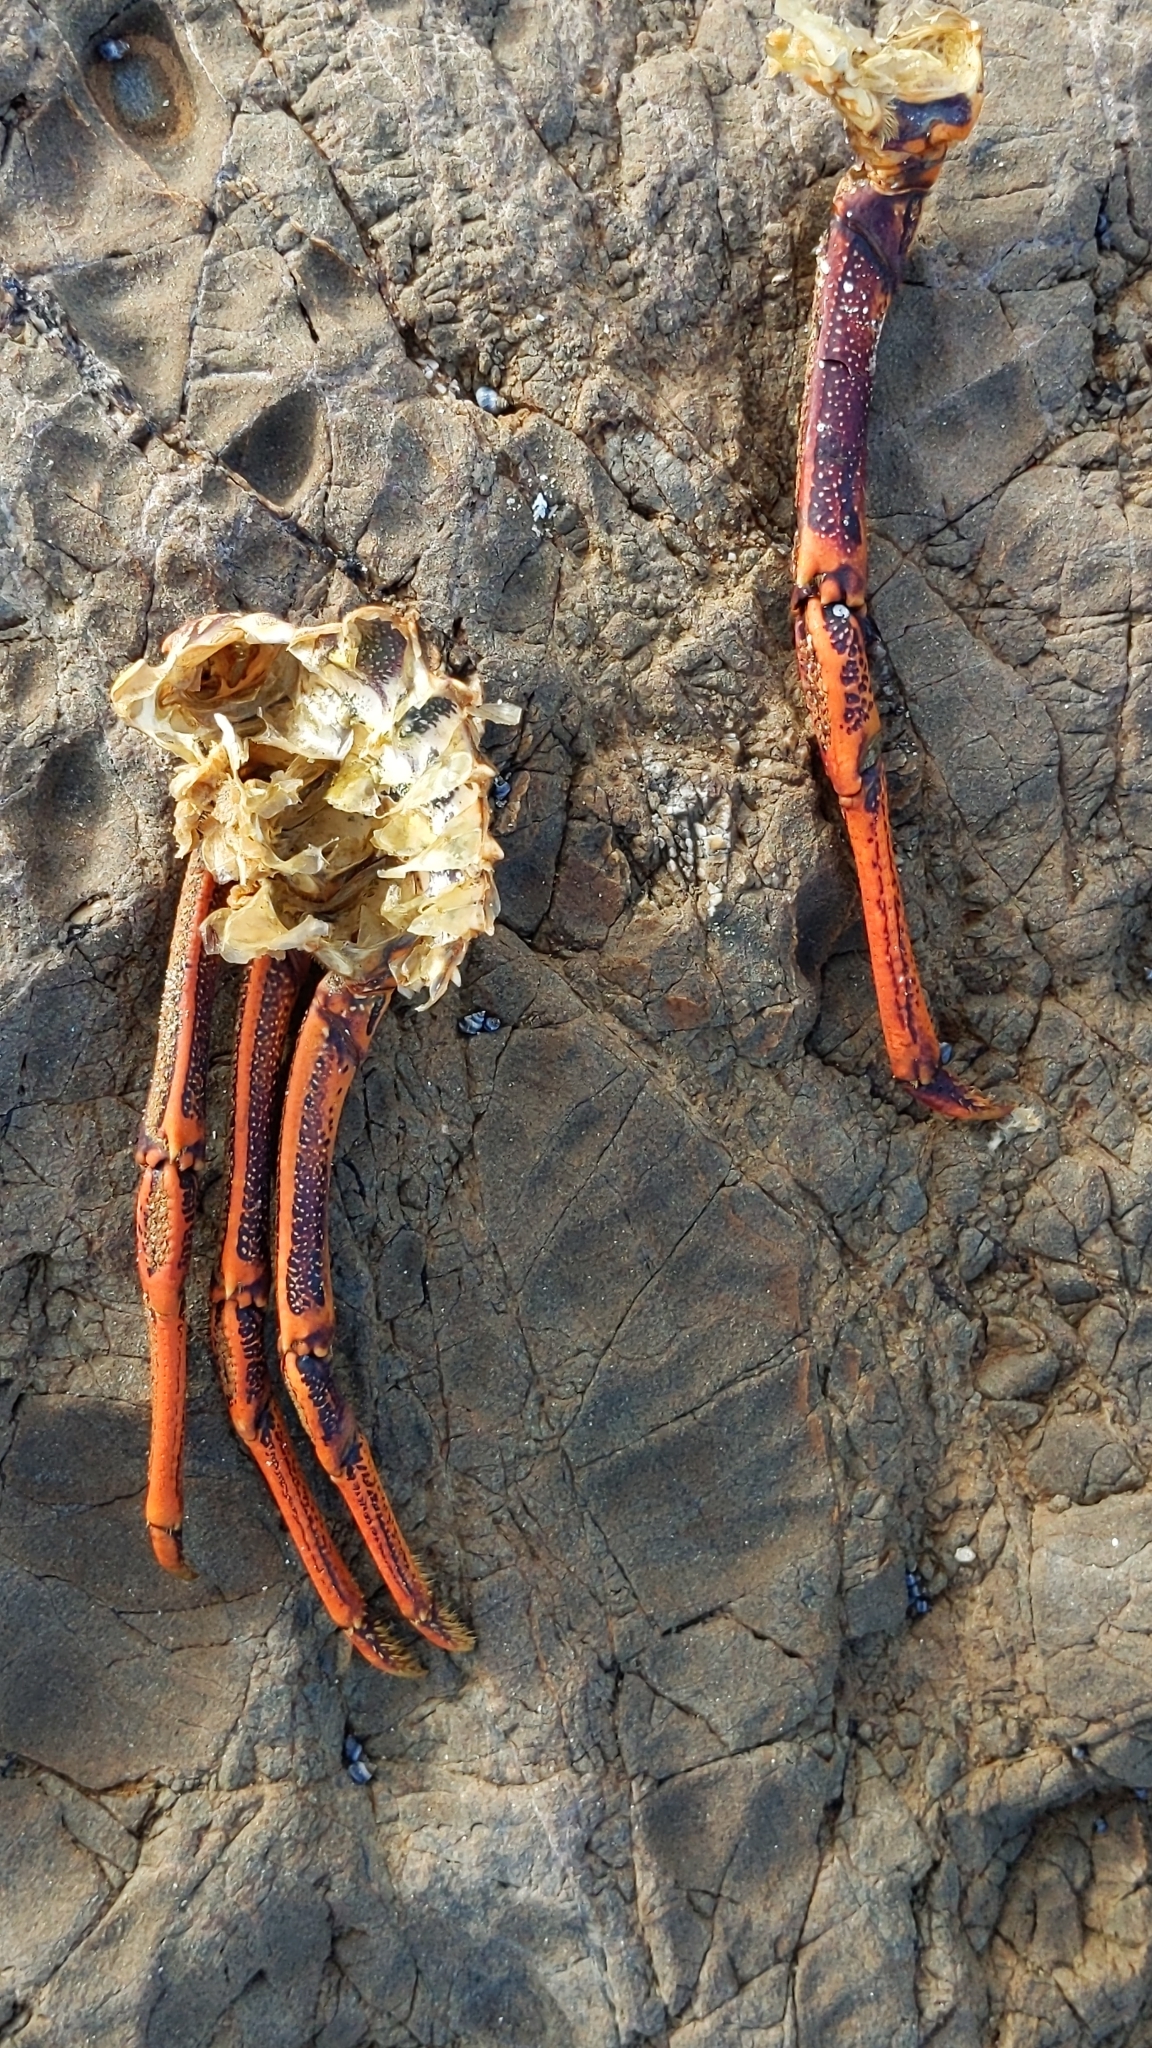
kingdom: Animalia
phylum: Arthropoda
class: Malacostraca
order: Decapoda
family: Palinuridae
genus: Jasus
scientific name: Jasus edwardsii
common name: Red rock lobster
